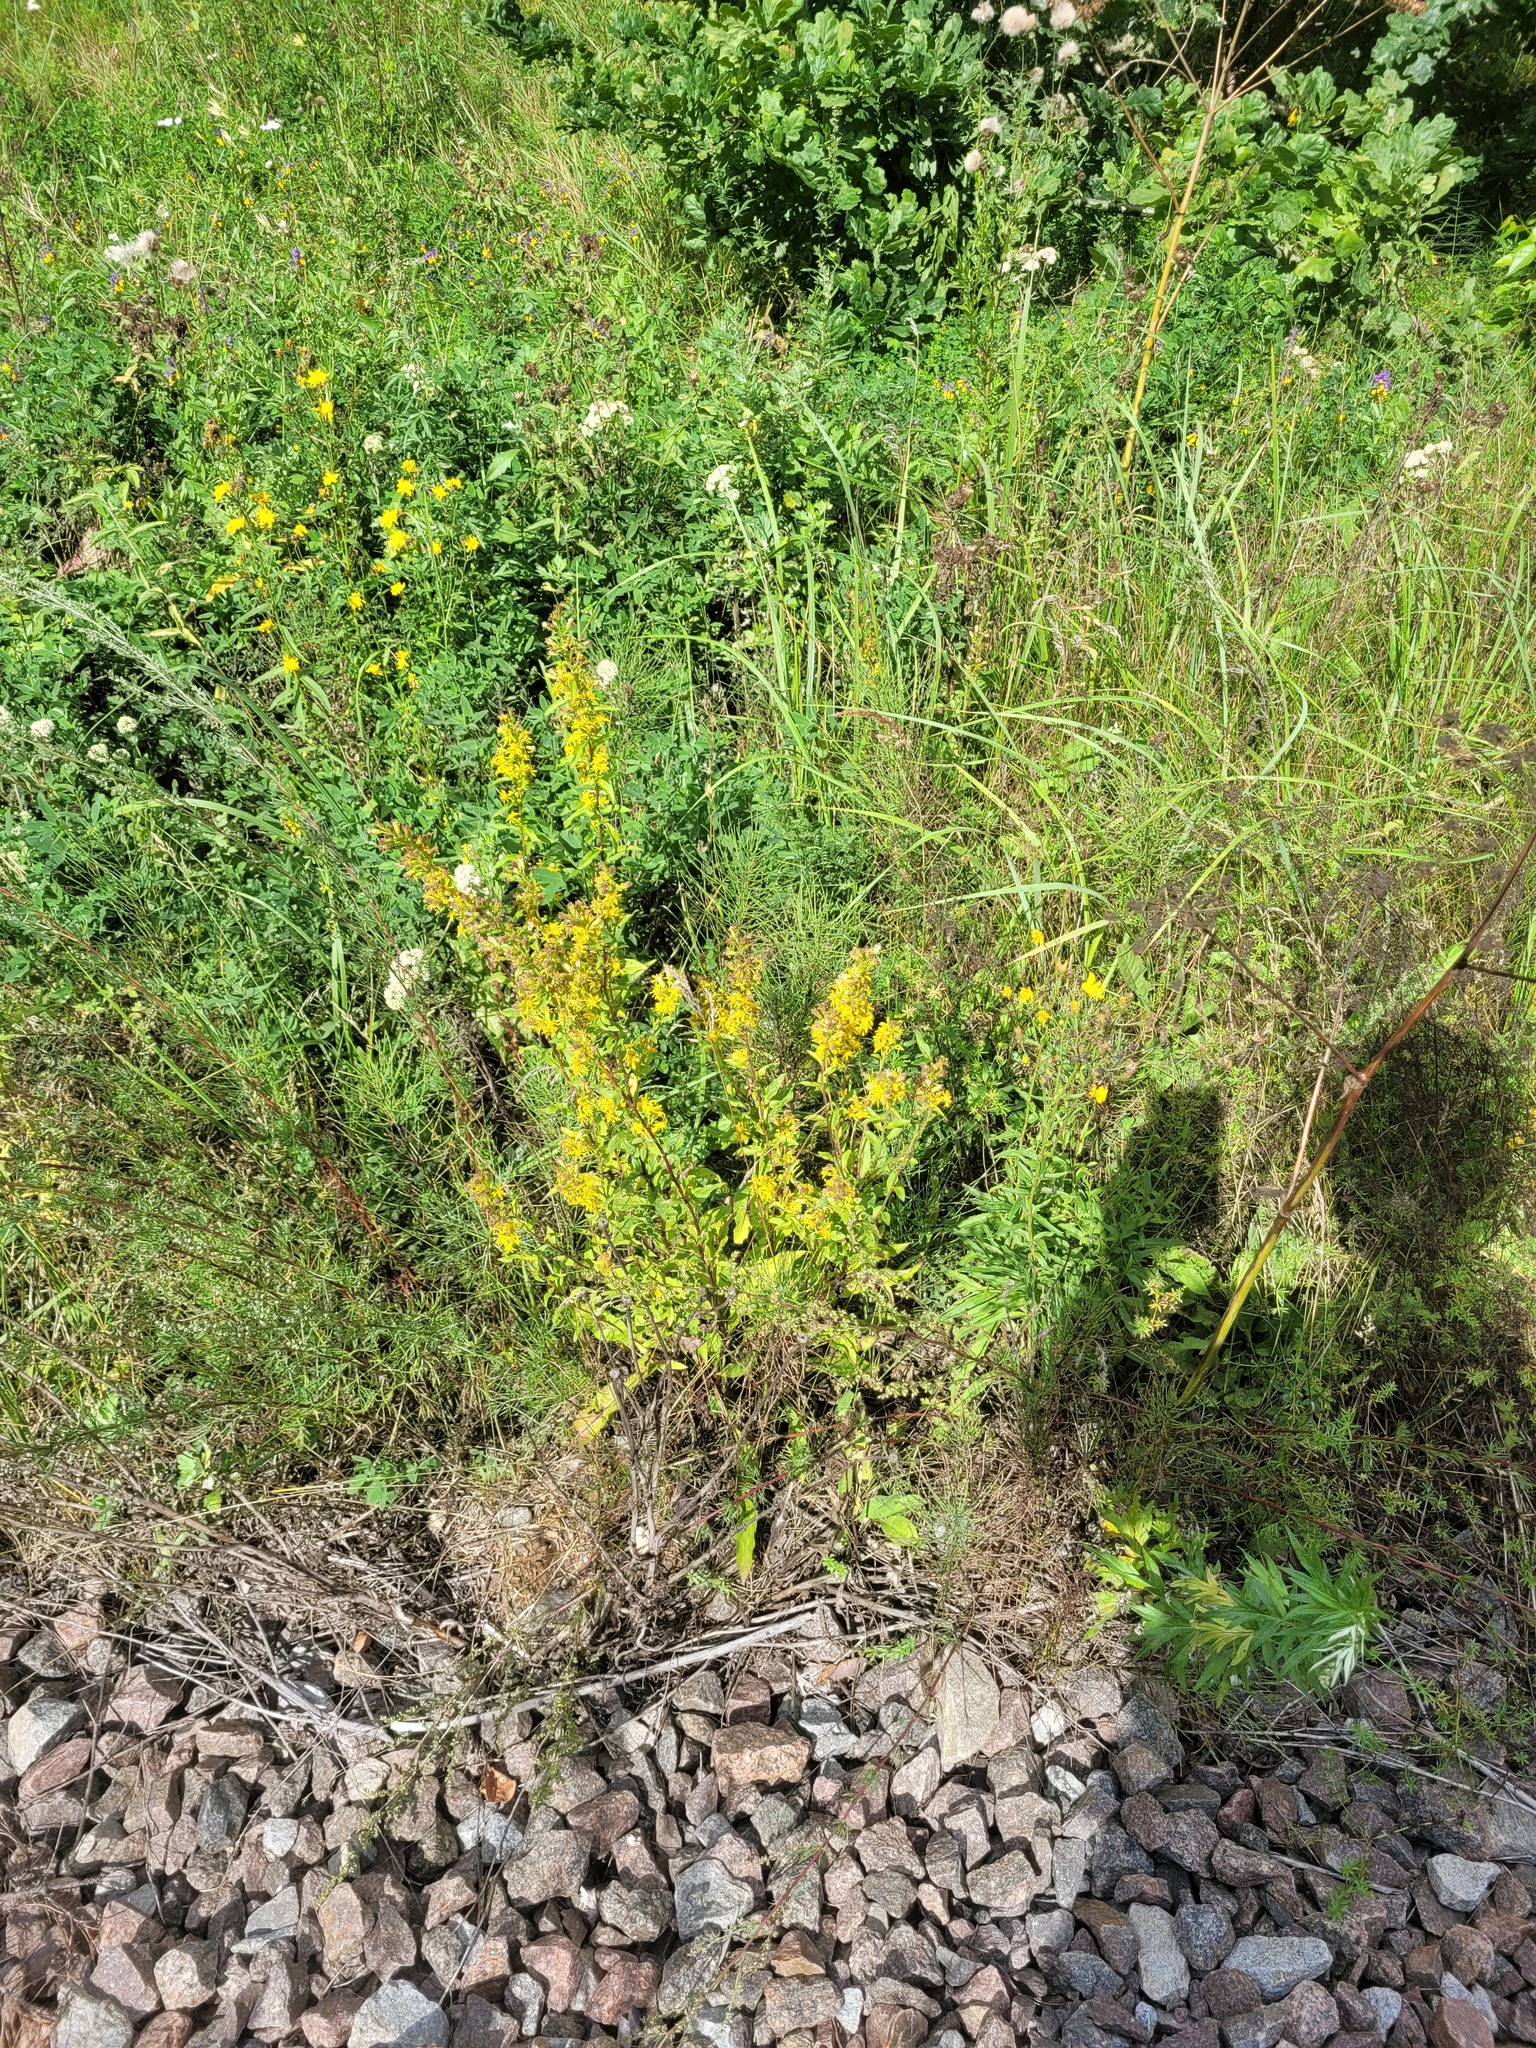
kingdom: Plantae
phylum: Tracheophyta
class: Magnoliopsida
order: Asterales
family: Asteraceae
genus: Solidago
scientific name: Solidago virgaurea
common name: Goldenrod
